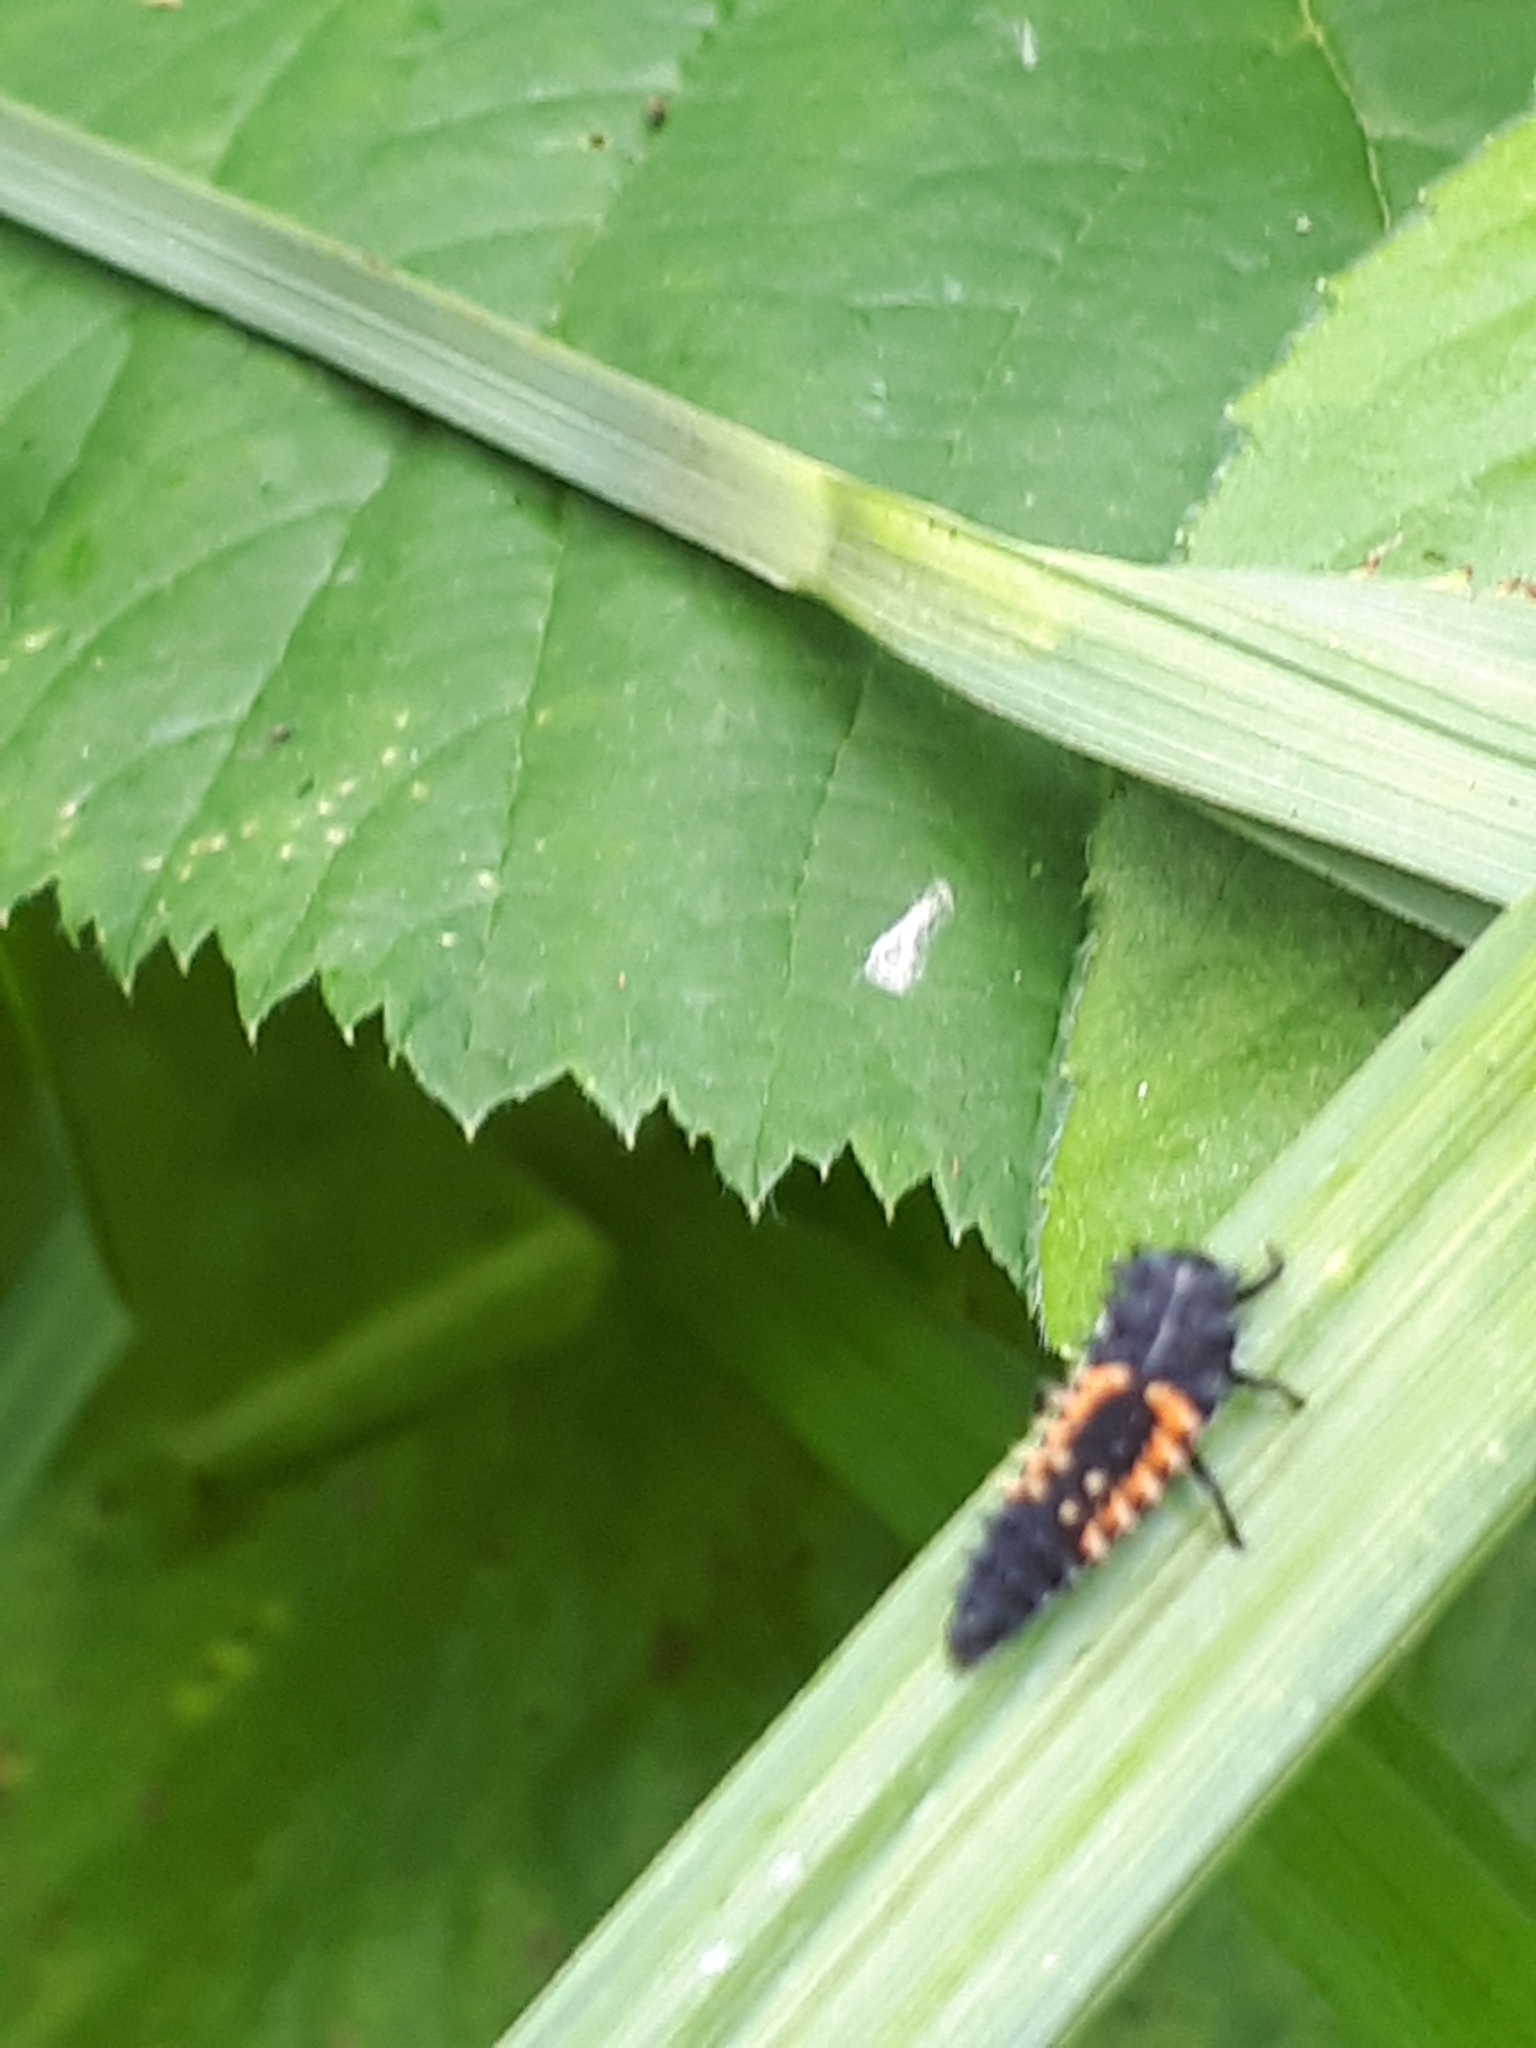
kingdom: Animalia
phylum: Arthropoda
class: Insecta
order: Coleoptera
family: Coccinellidae
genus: Harmonia
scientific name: Harmonia axyridis
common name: Harlequin ladybird
